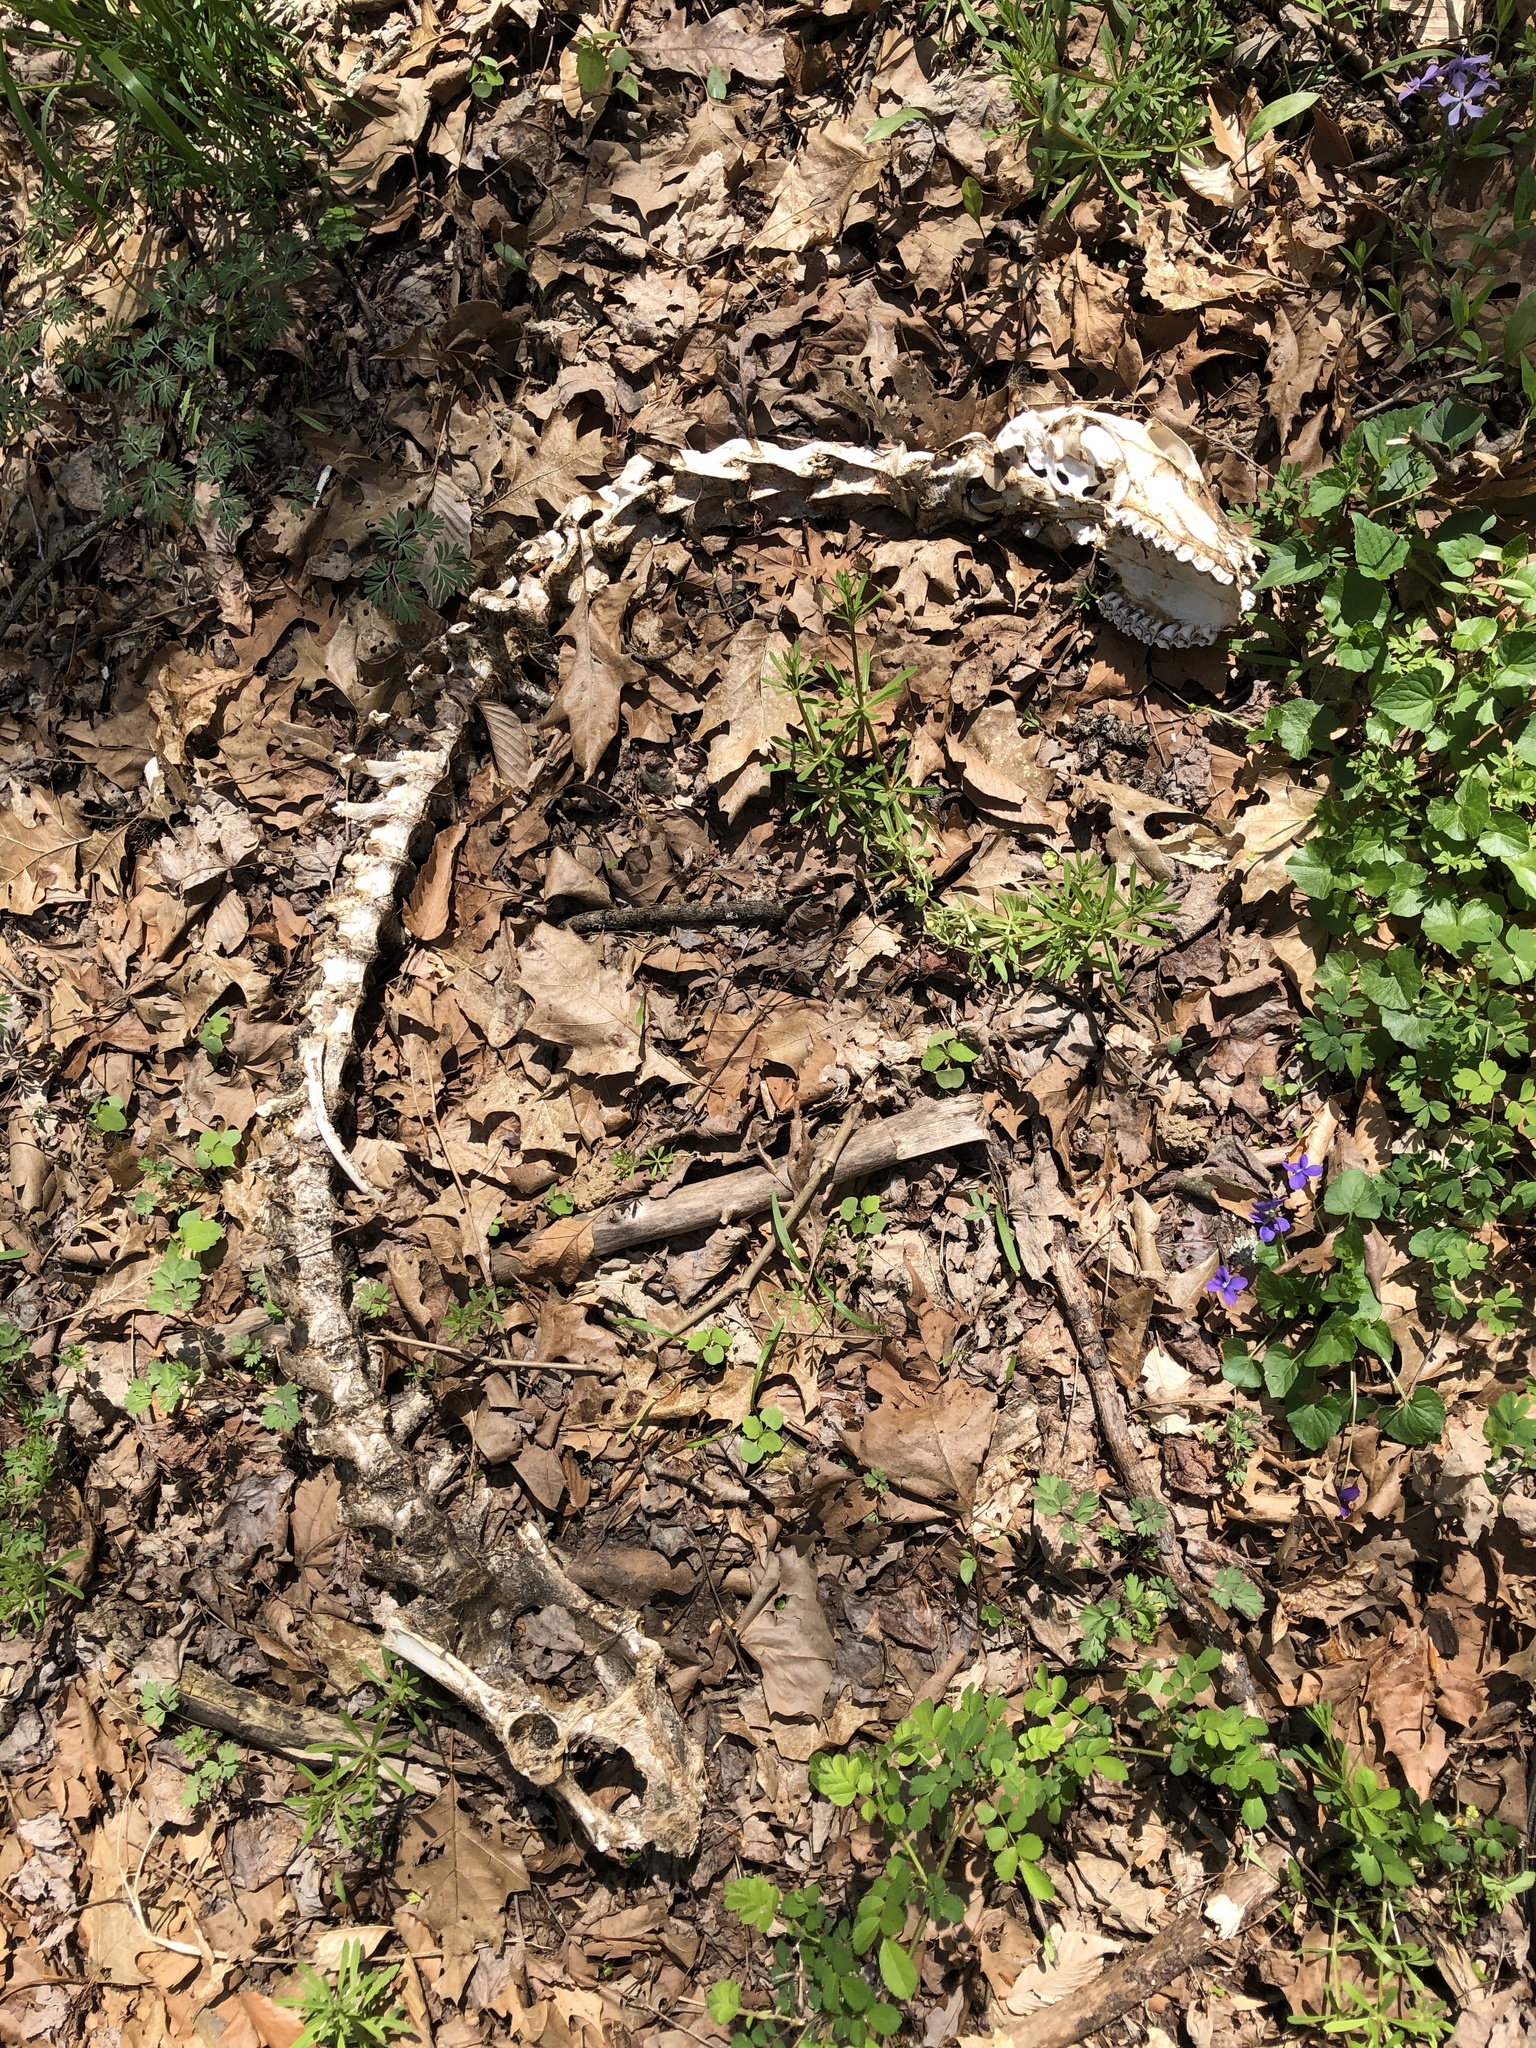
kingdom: Animalia
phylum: Chordata
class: Mammalia
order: Artiodactyla
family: Cervidae
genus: Odocoileus
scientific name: Odocoileus virginianus
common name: White-tailed deer
